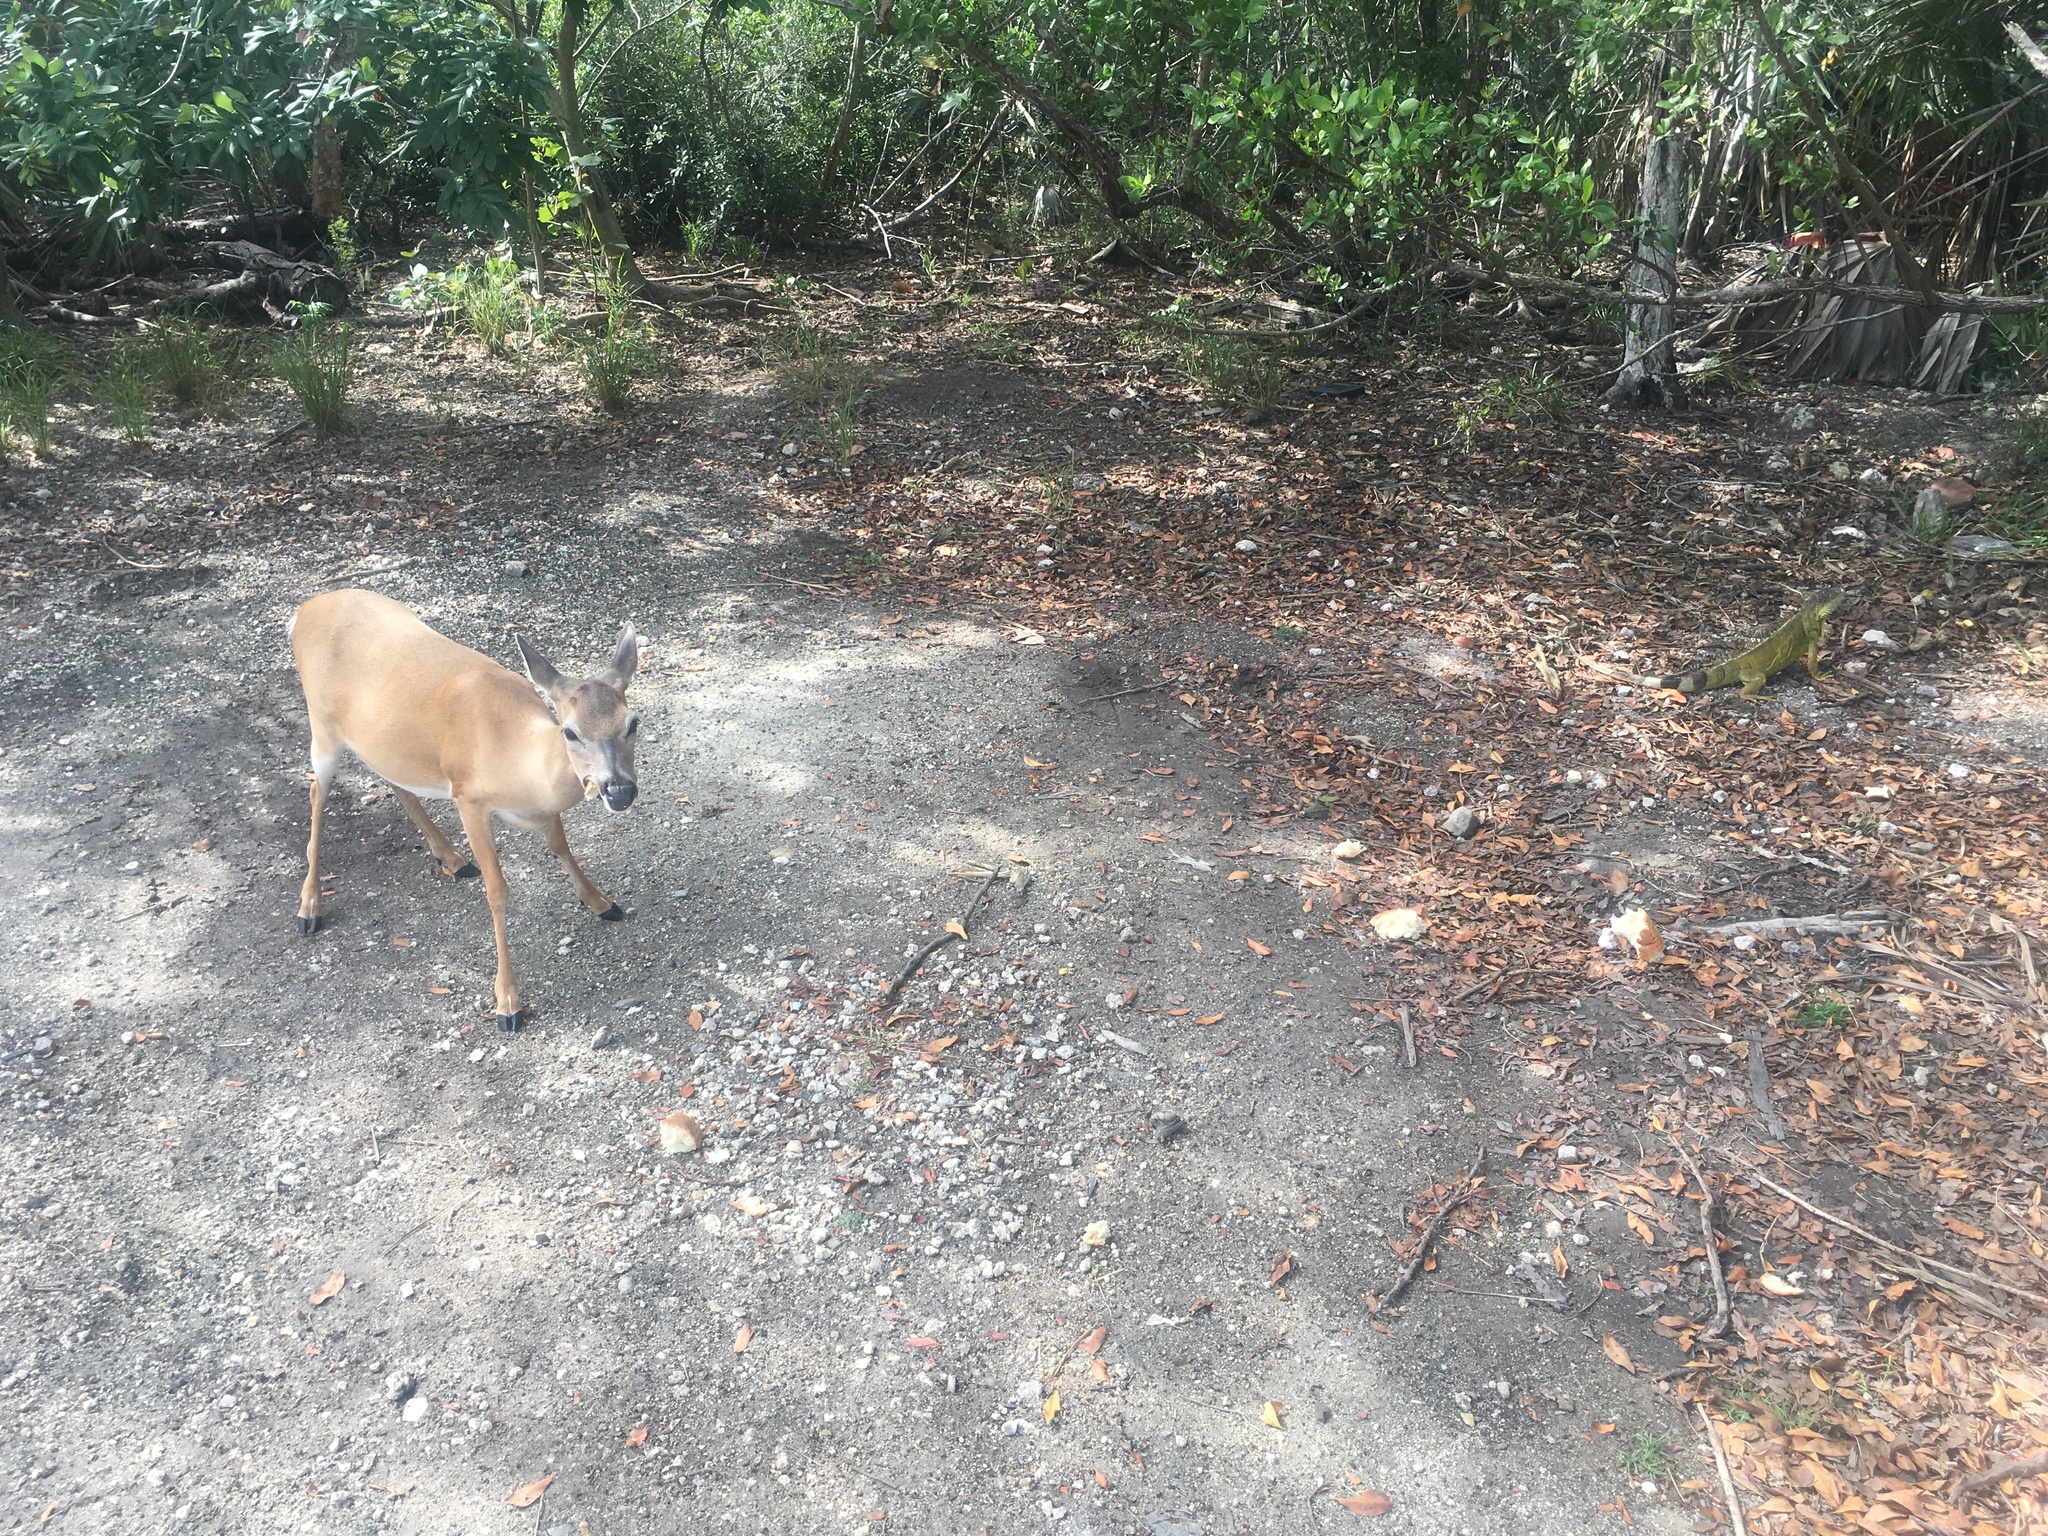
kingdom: Animalia
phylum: Chordata
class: Squamata
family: Iguanidae
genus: Iguana
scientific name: Iguana iguana
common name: Green iguana
